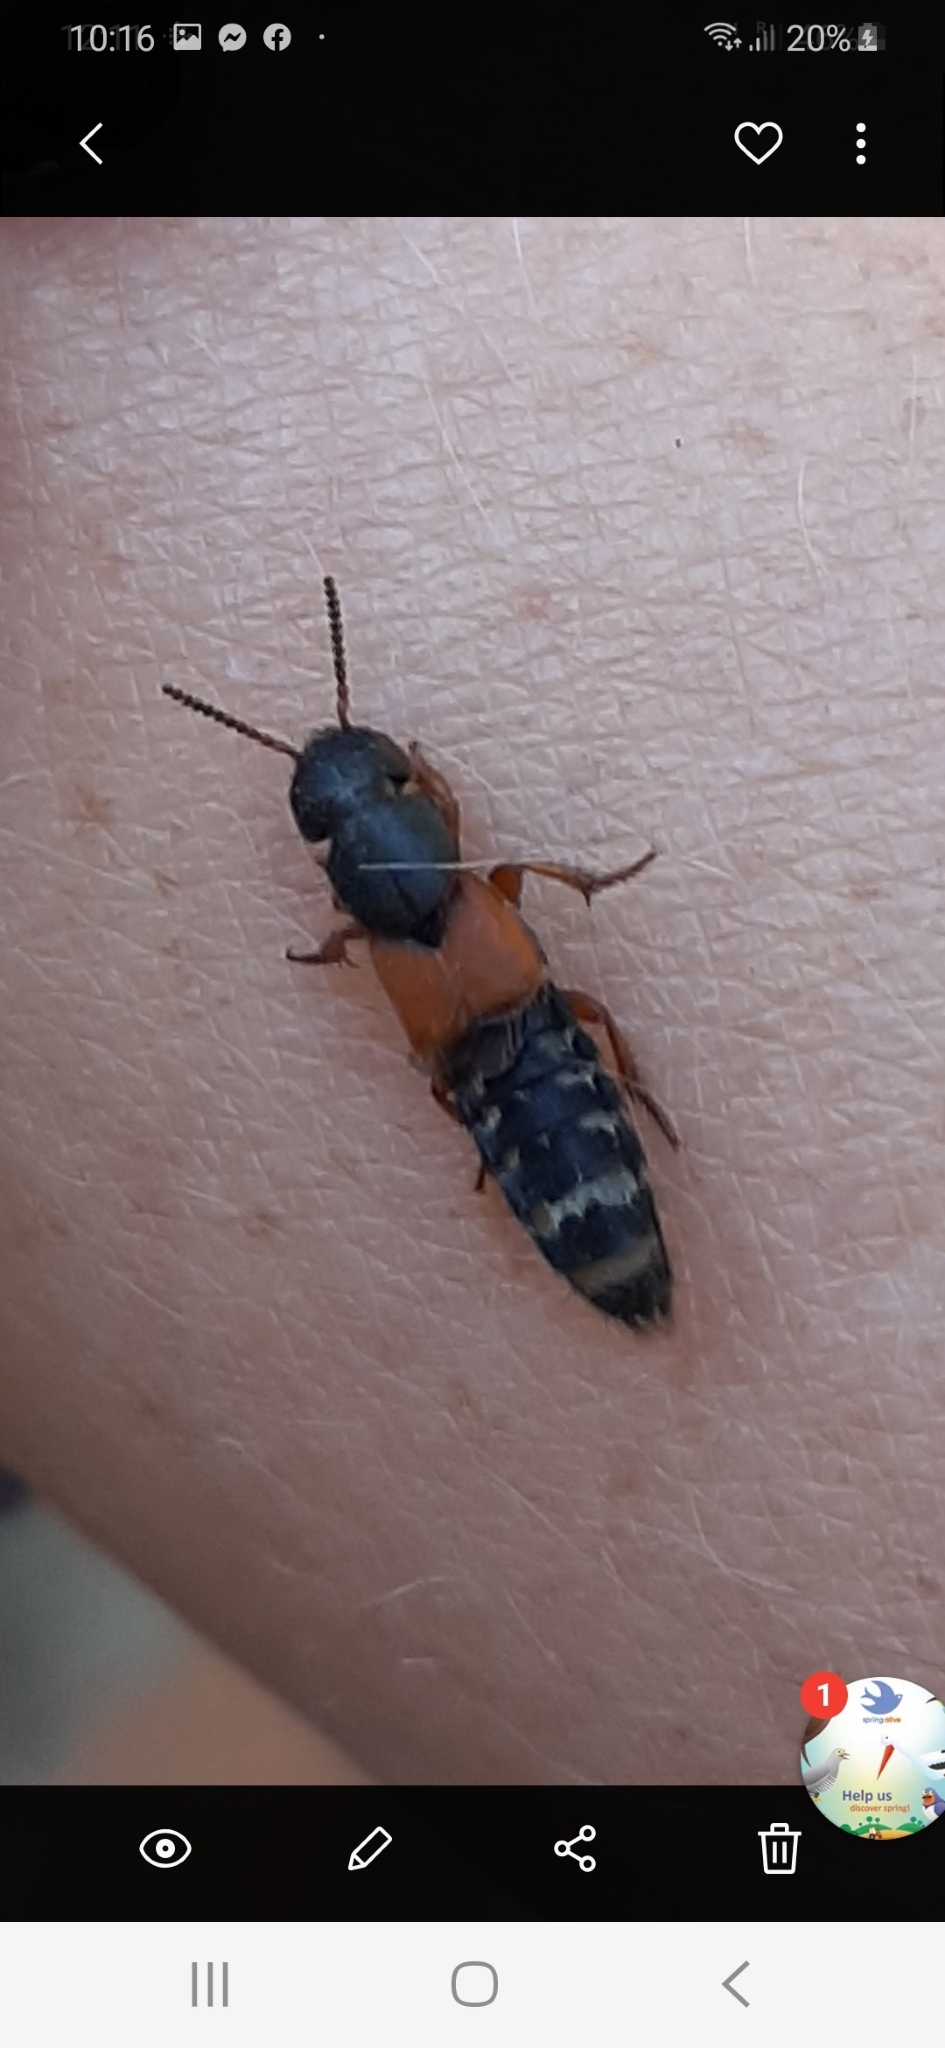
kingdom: Animalia
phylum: Arthropoda
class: Insecta
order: Coleoptera
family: Staphylinidae
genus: Platydracus
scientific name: Platydracus stercorarius
